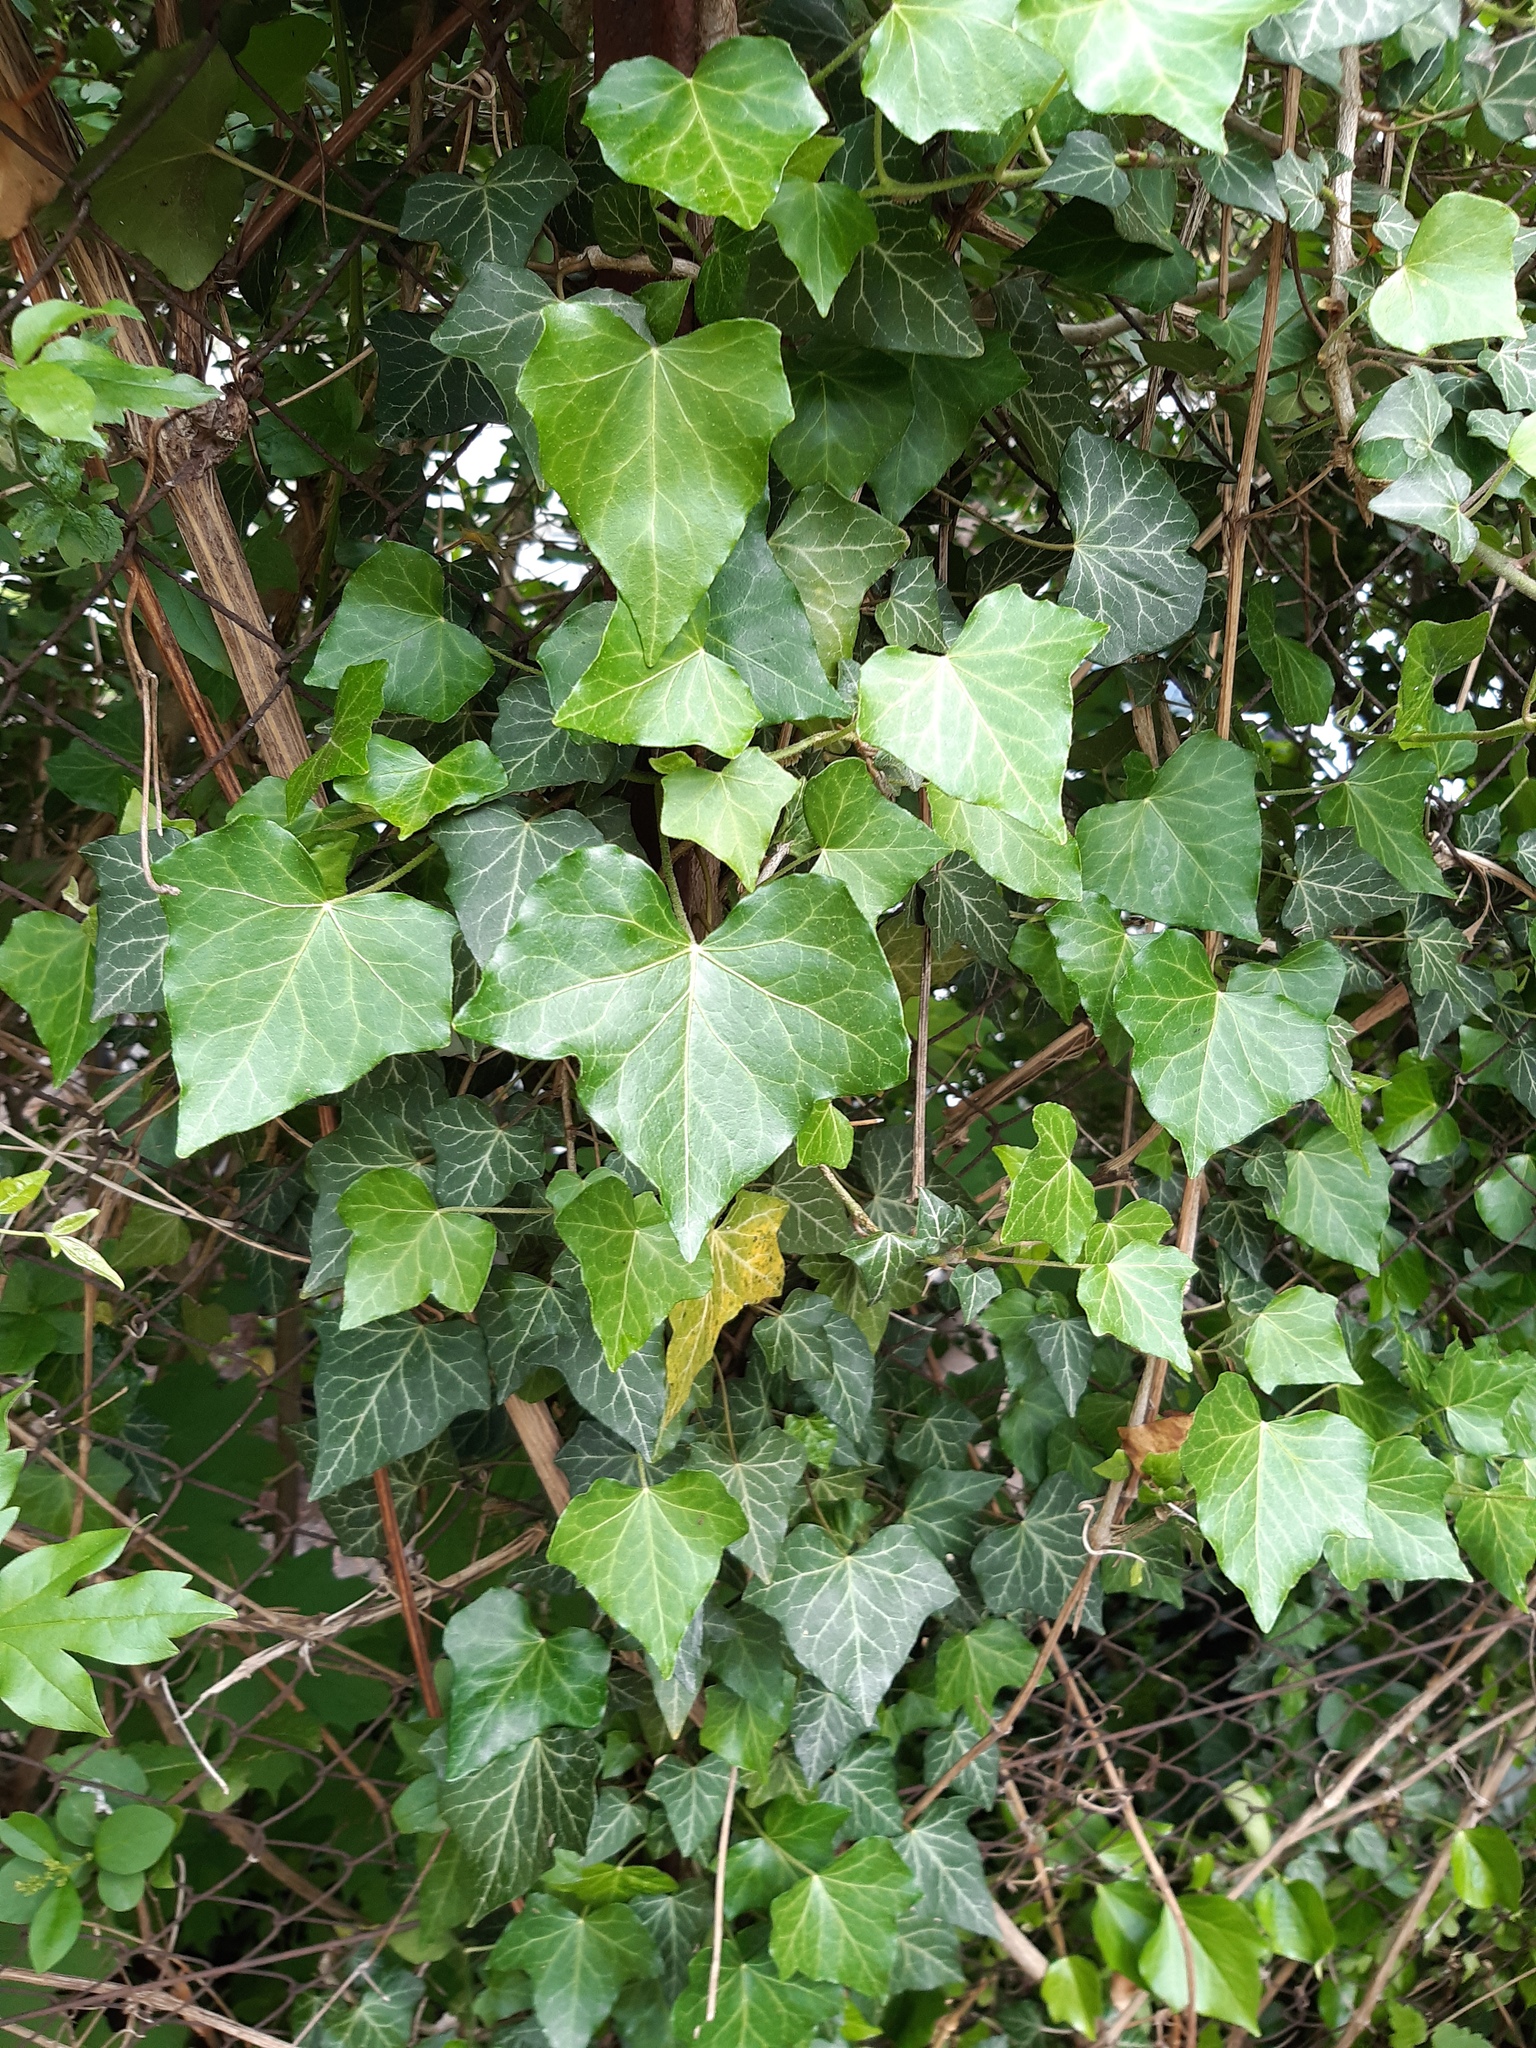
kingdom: Plantae
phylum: Tracheophyta
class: Magnoliopsida
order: Apiales
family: Araliaceae
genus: Hedera
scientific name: Hedera helix
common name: Ivy
